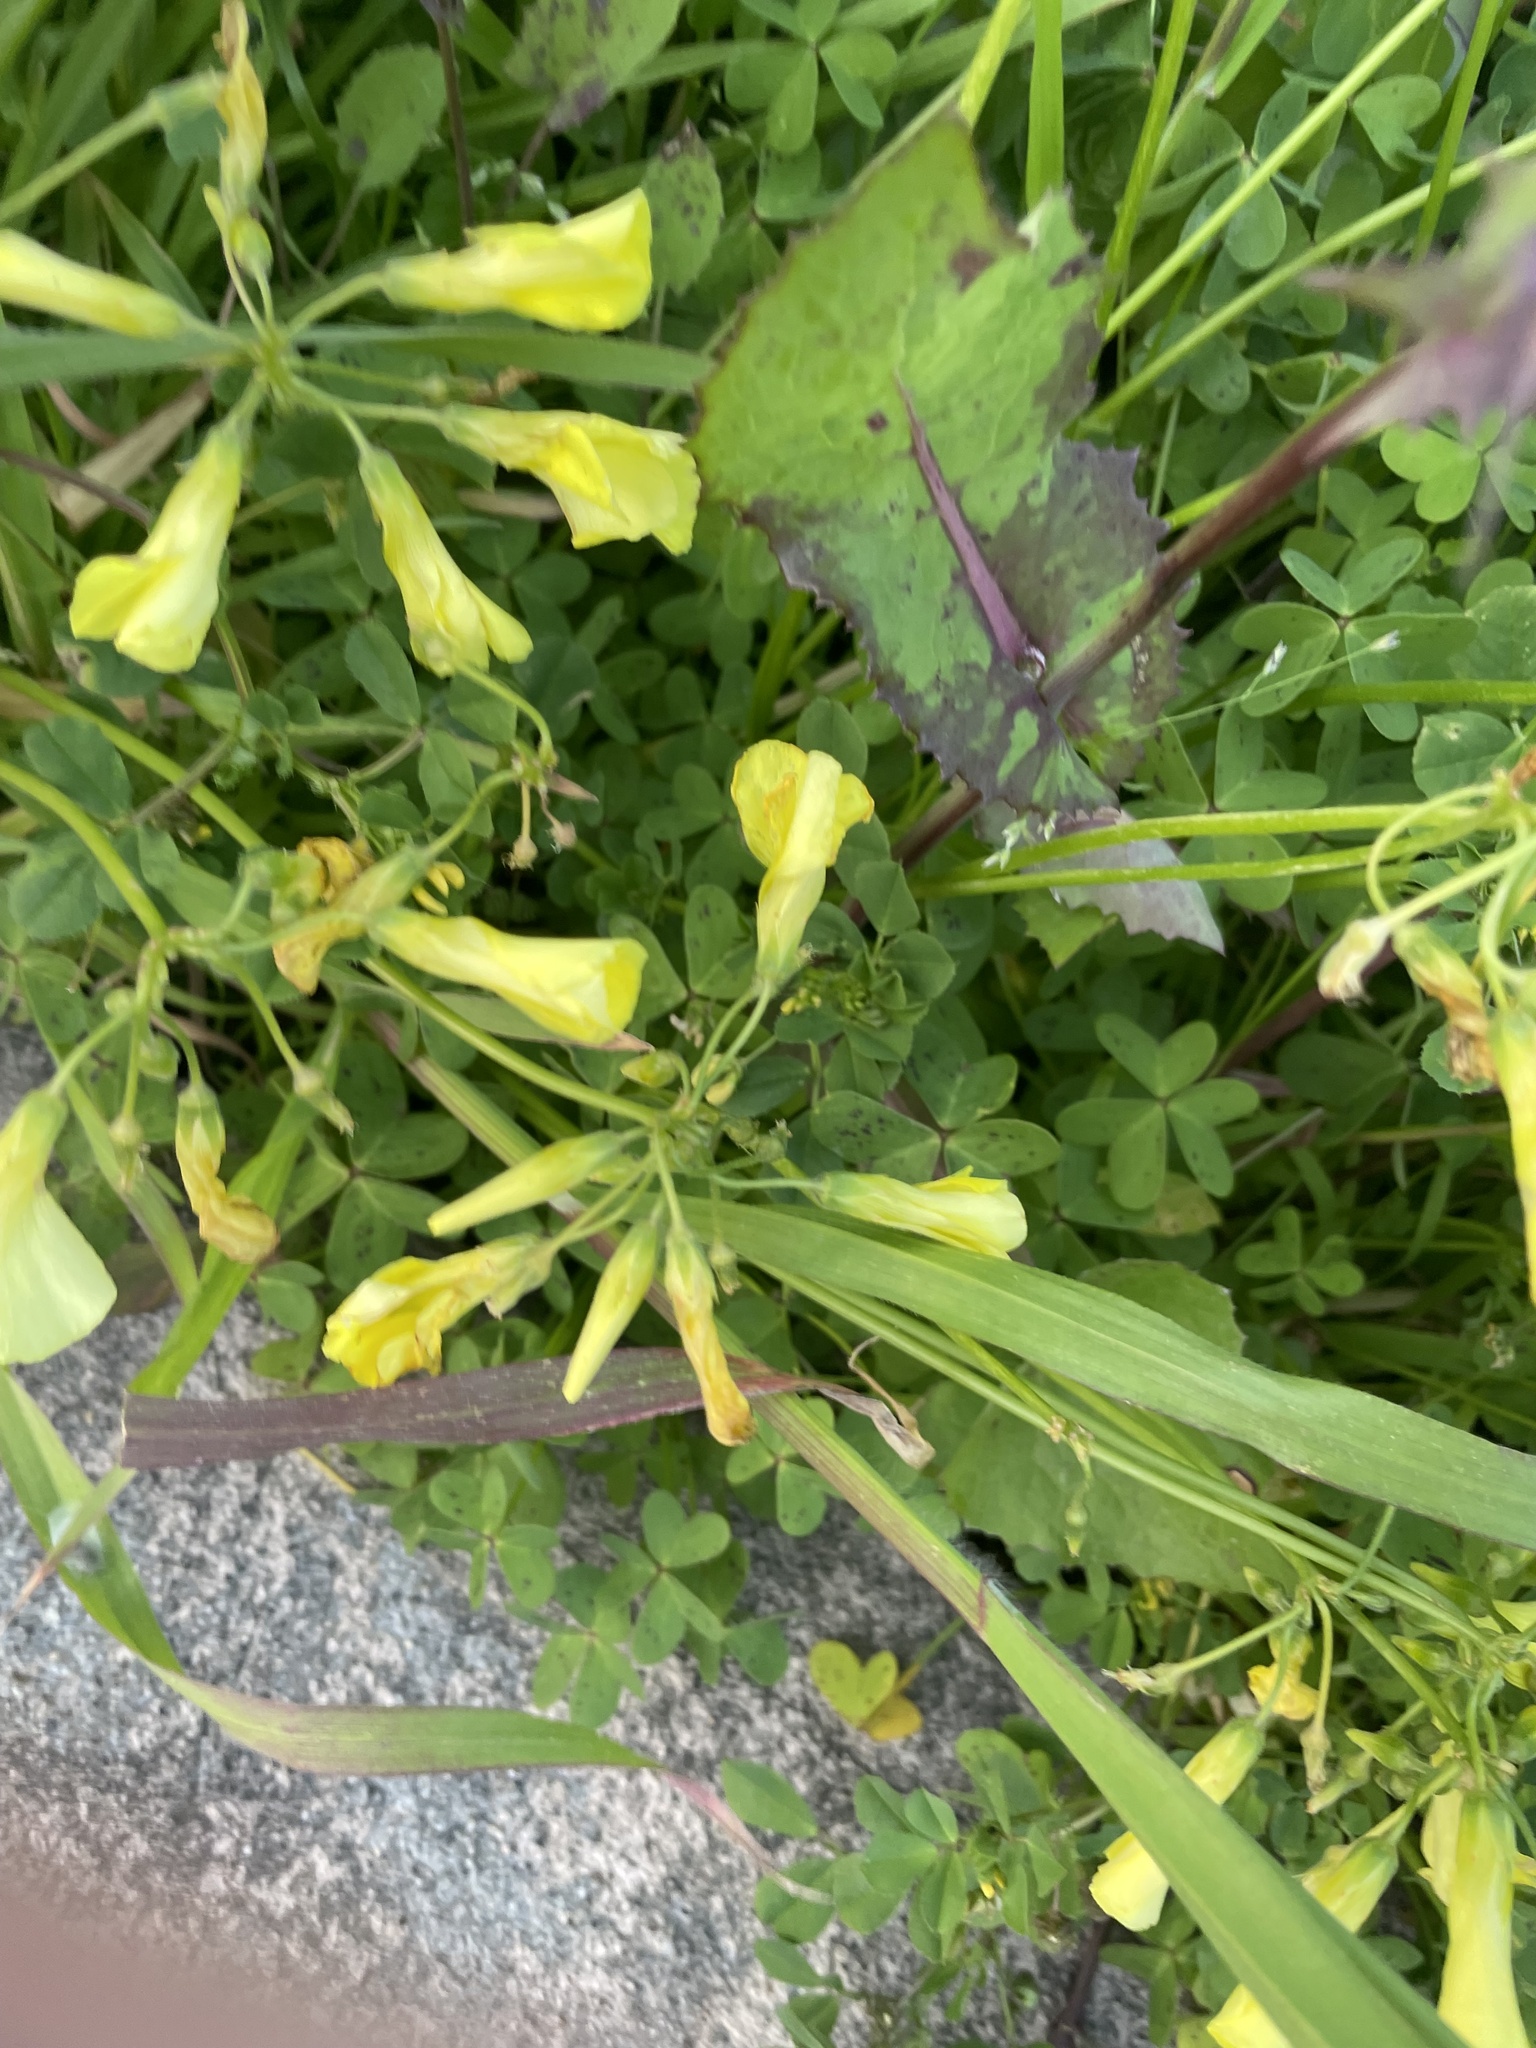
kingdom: Plantae
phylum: Tracheophyta
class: Magnoliopsida
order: Oxalidales
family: Oxalidaceae
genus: Oxalis
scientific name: Oxalis pes-caprae
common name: Bermuda-buttercup
